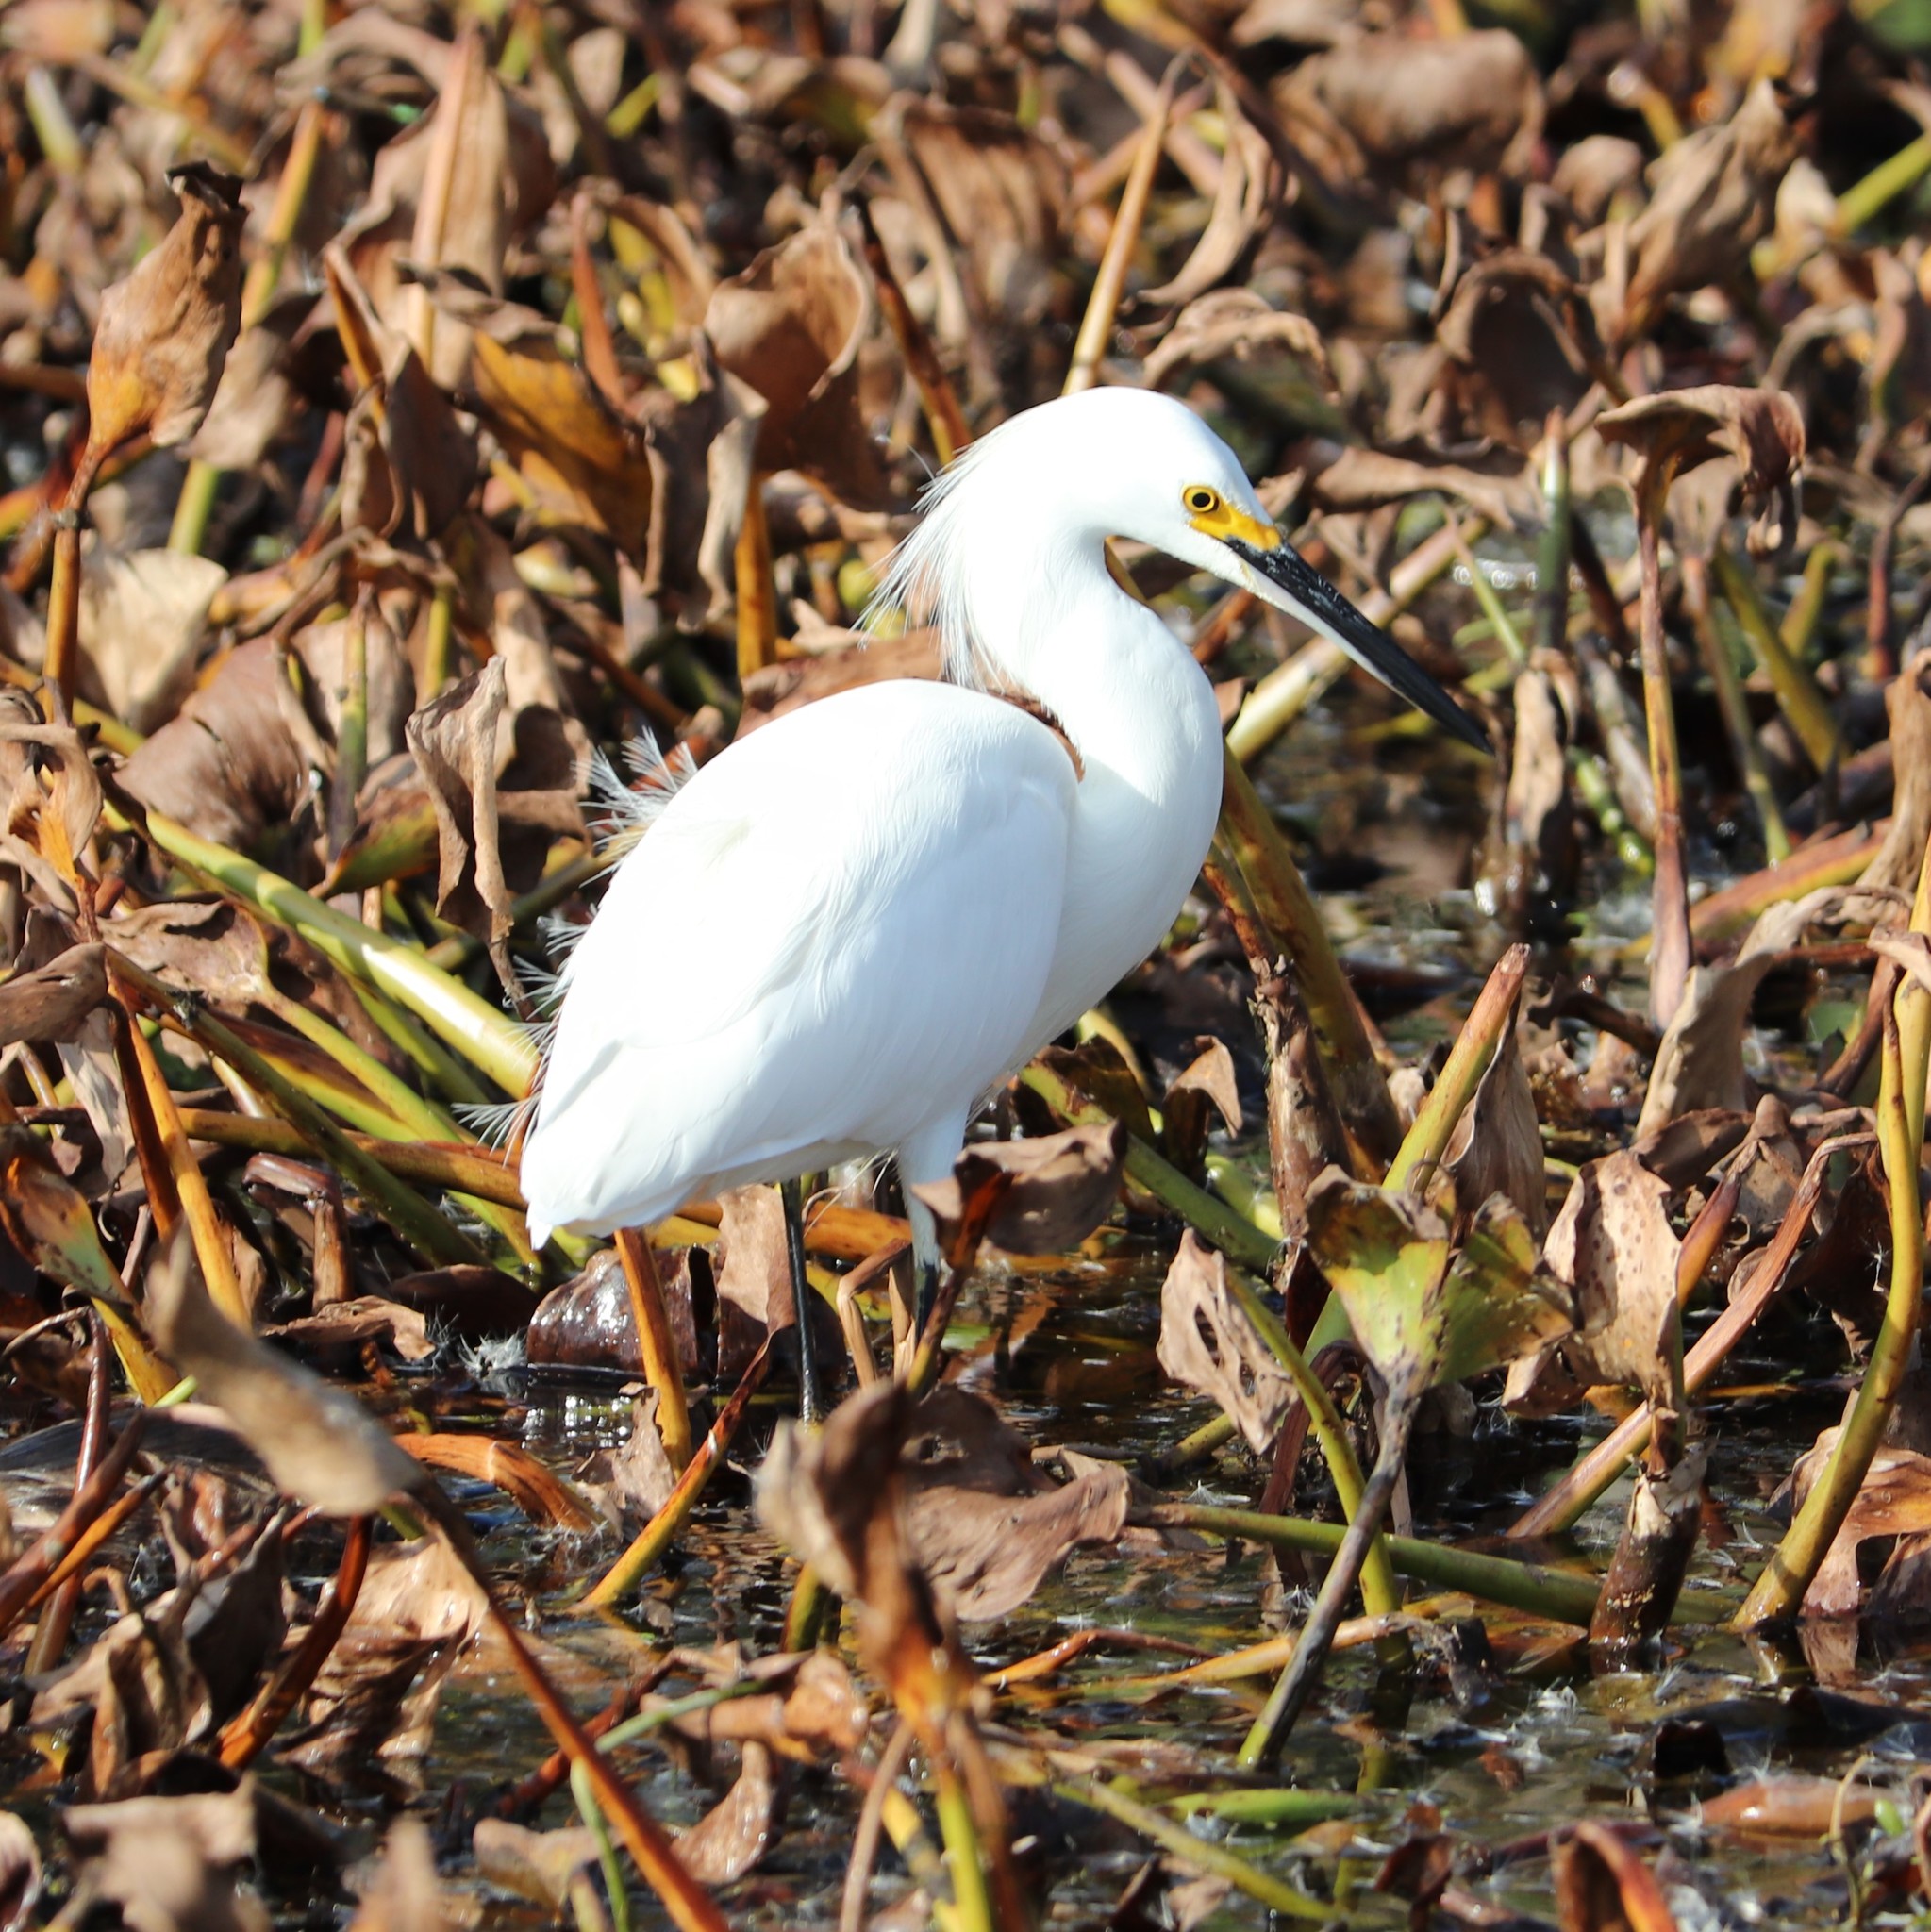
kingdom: Animalia
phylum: Chordata
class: Aves
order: Pelecaniformes
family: Ardeidae
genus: Egretta
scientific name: Egretta thula
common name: Snowy egret
